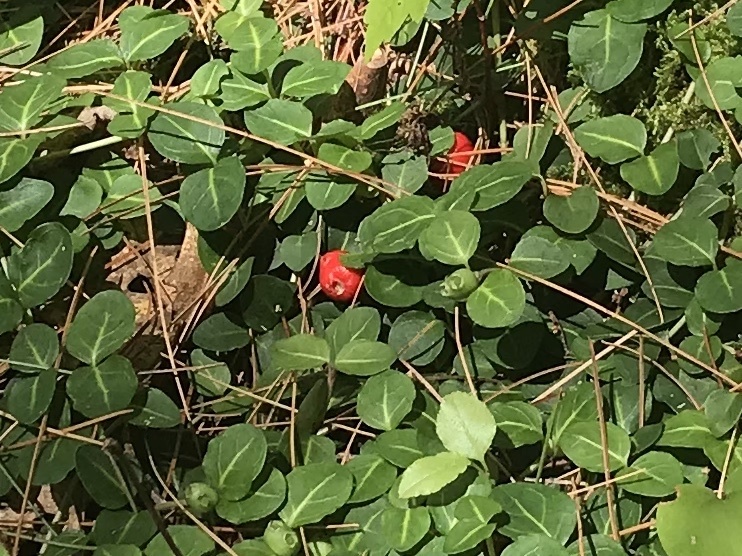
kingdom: Plantae
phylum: Tracheophyta
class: Magnoliopsida
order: Gentianales
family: Rubiaceae
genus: Mitchella
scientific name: Mitchella repens
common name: Partridge-berry
